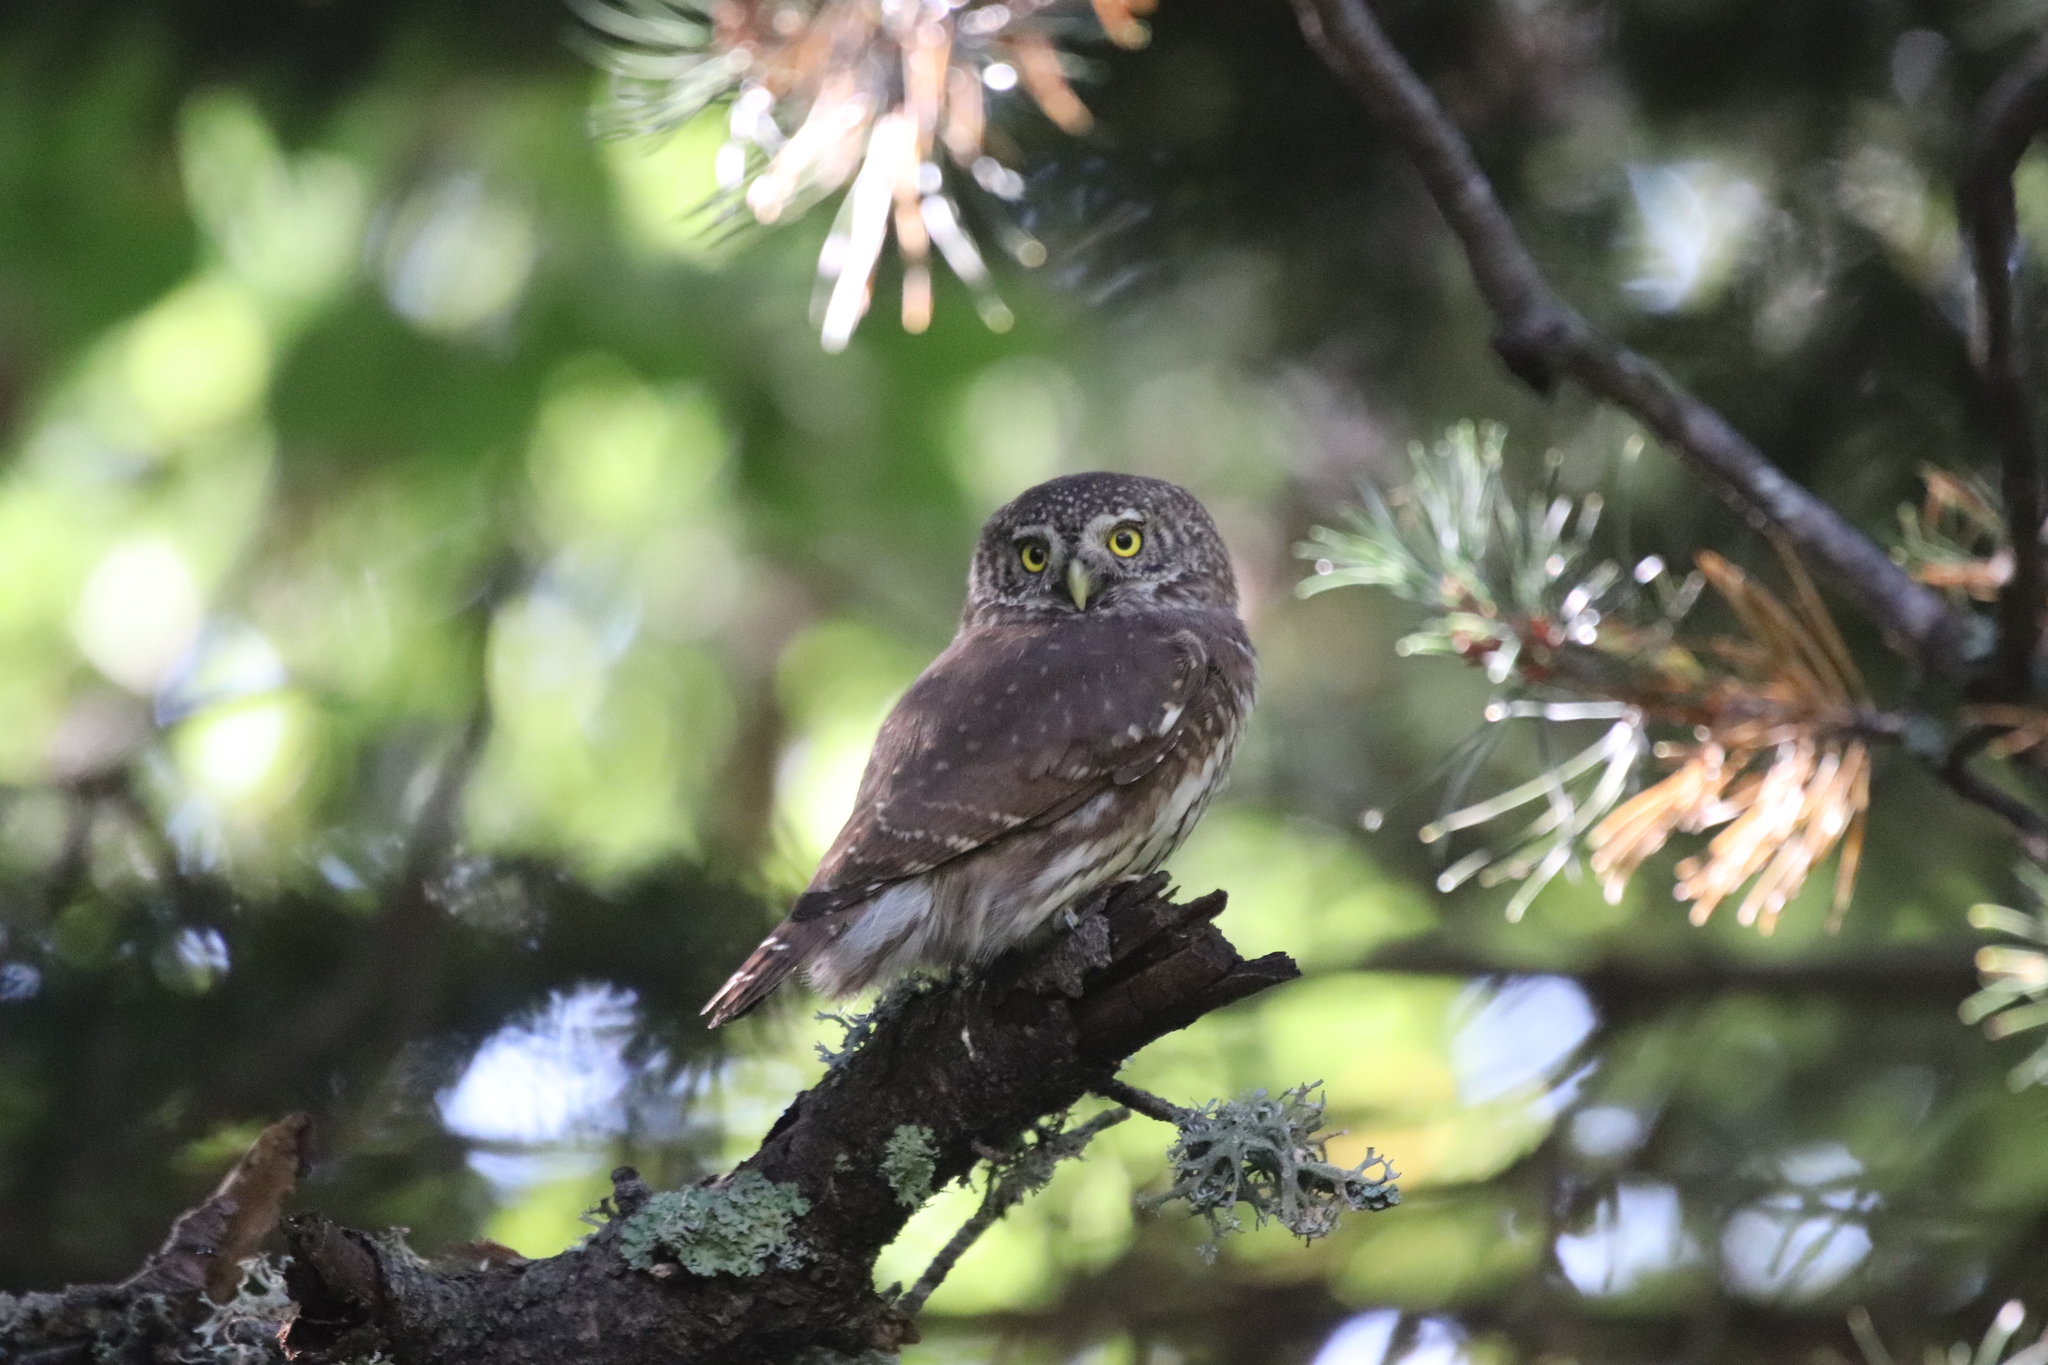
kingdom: Animalia
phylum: Chordata
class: Aves
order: Strigiformes
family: Strigidae
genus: Glaucidium
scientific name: Glaucidium passerinum
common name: Eurasian pygmy owl
